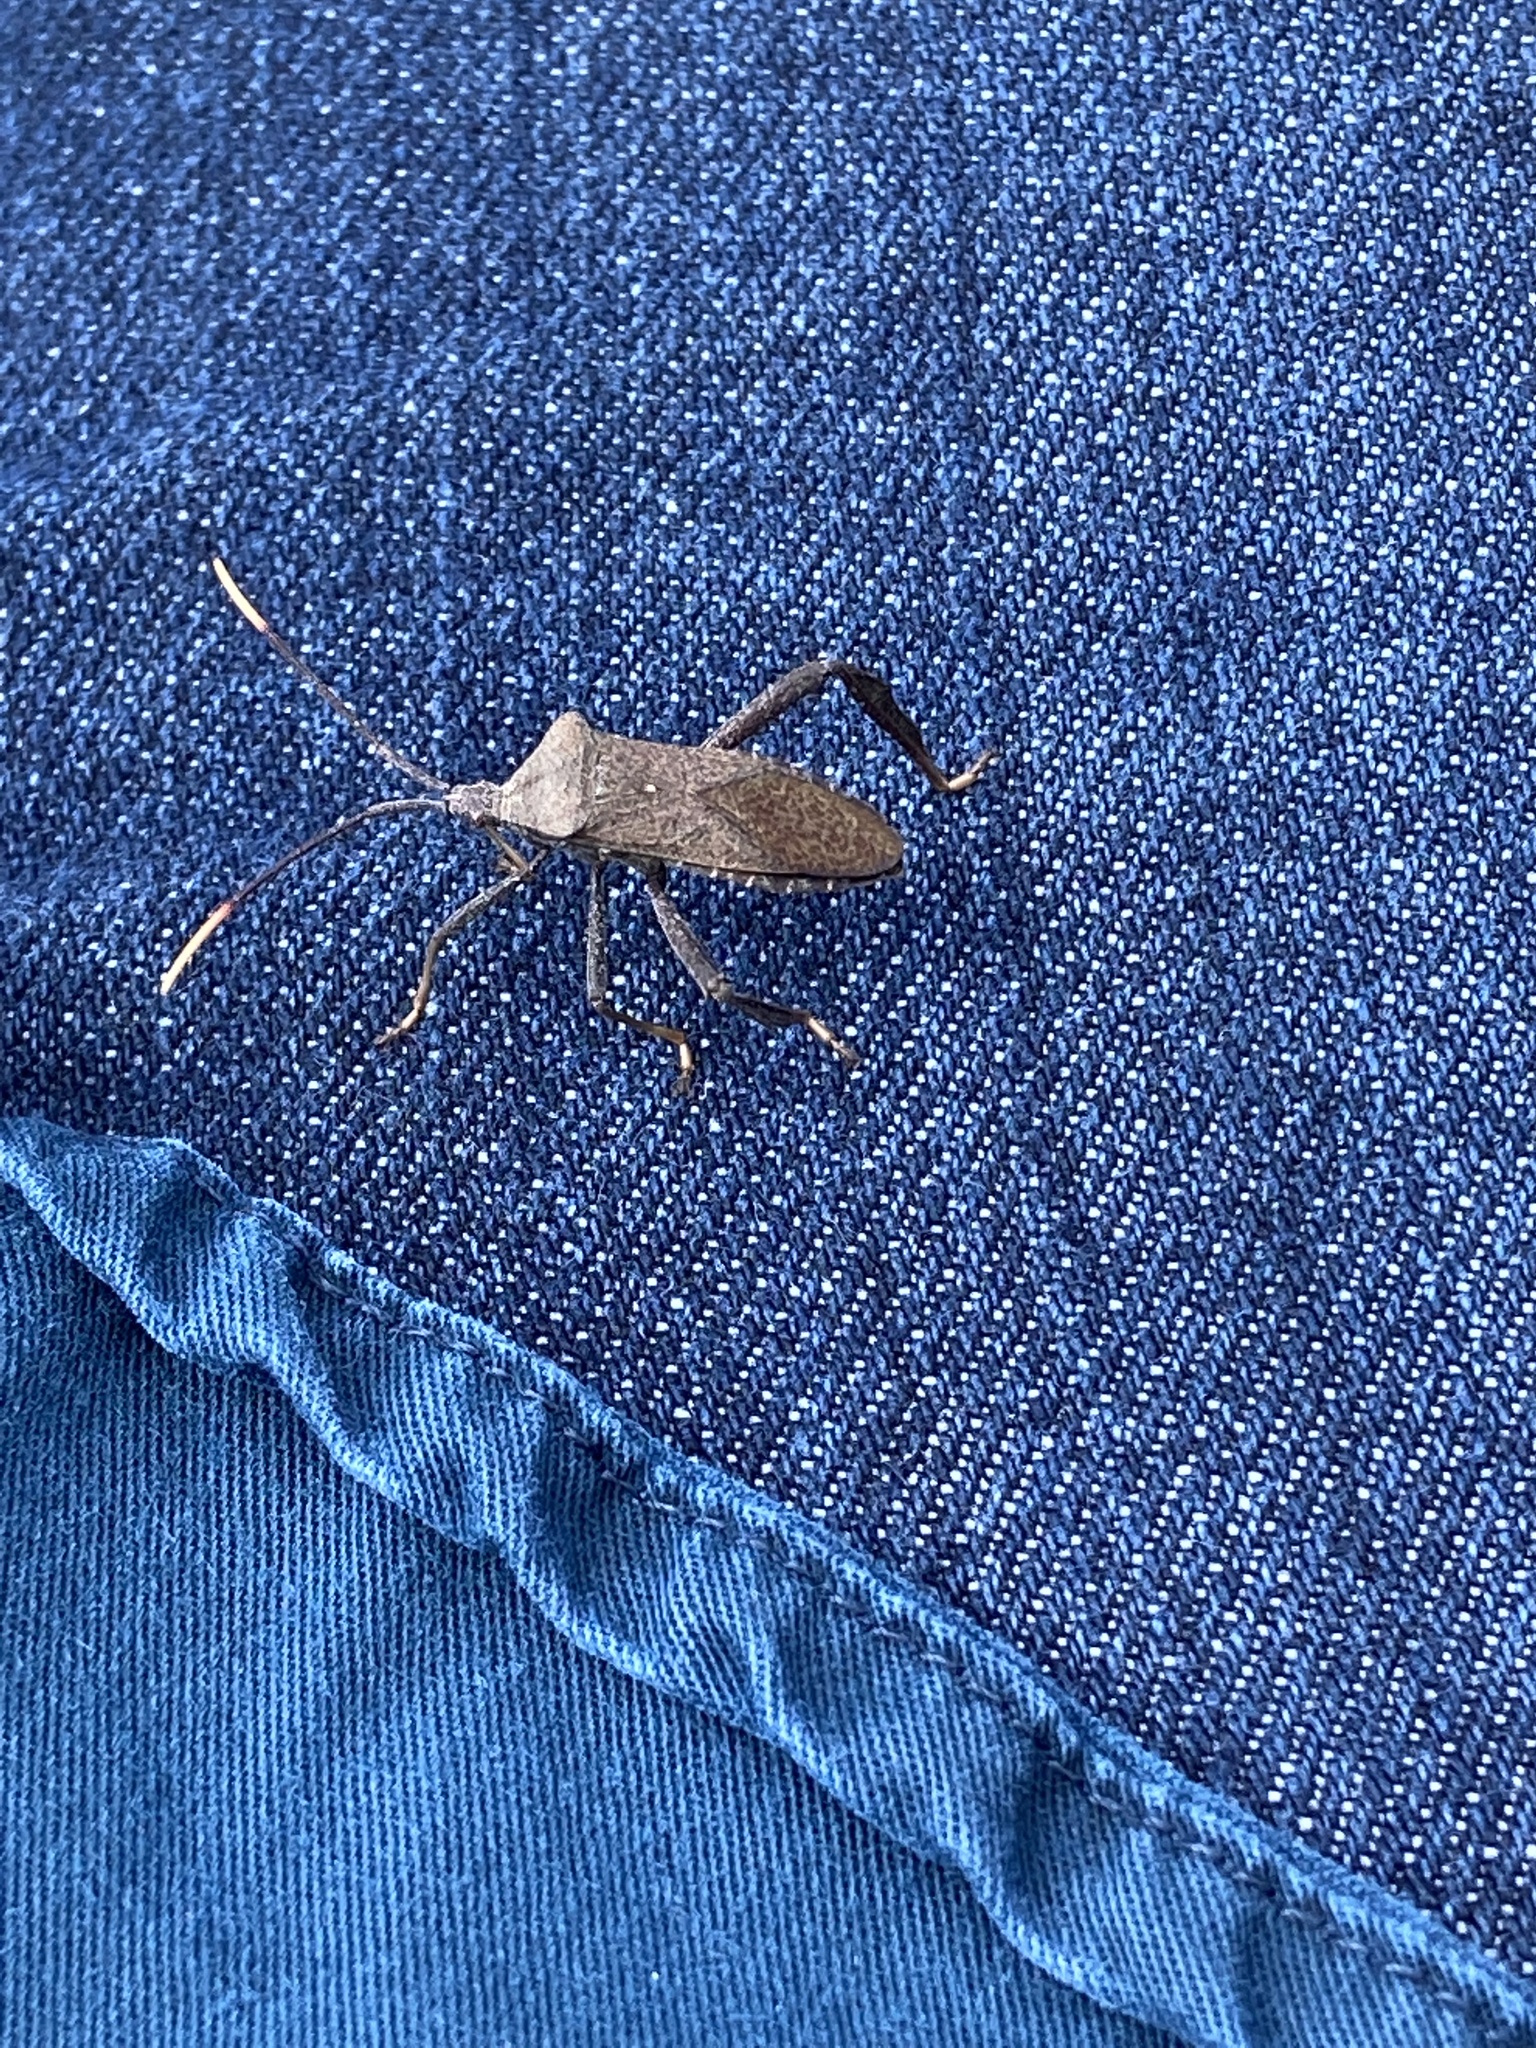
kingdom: Animalia
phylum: Arthropoda
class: Insecta
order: Hemiptera
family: Coreidae
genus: Acanthocephala
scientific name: Acanthocephala terminalis
